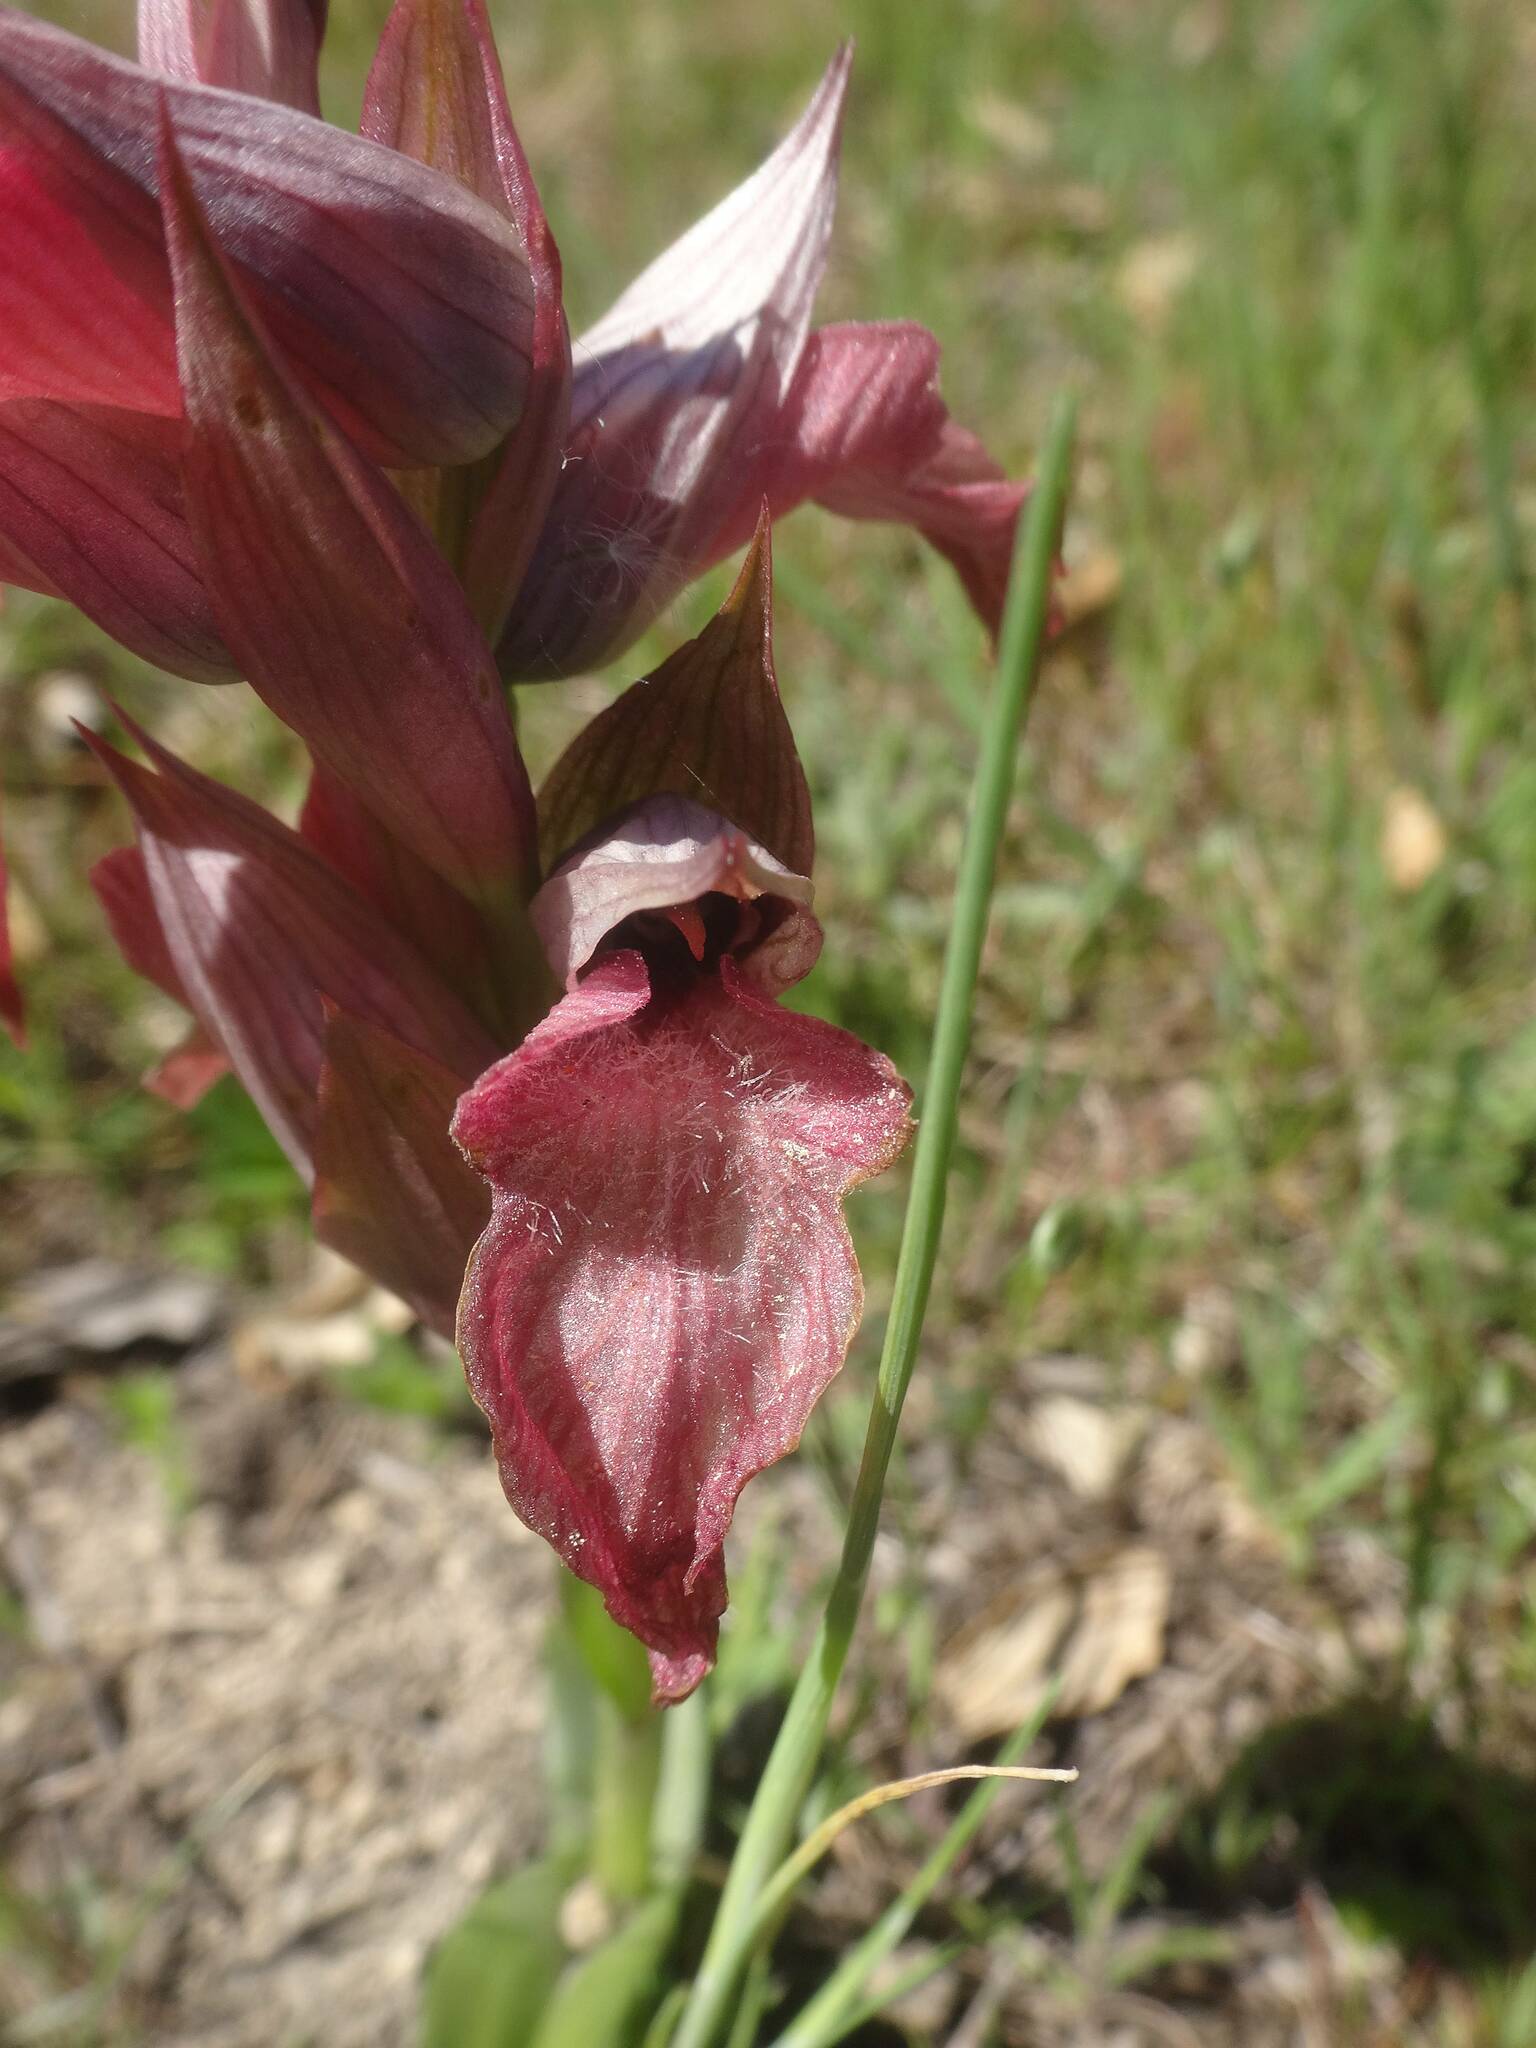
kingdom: Plantae
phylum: Tracheophyta
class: Liliopsida
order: Asparagales
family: Orchidaceae
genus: Serapias
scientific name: Serapias neglecta
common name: Neglected serapias
